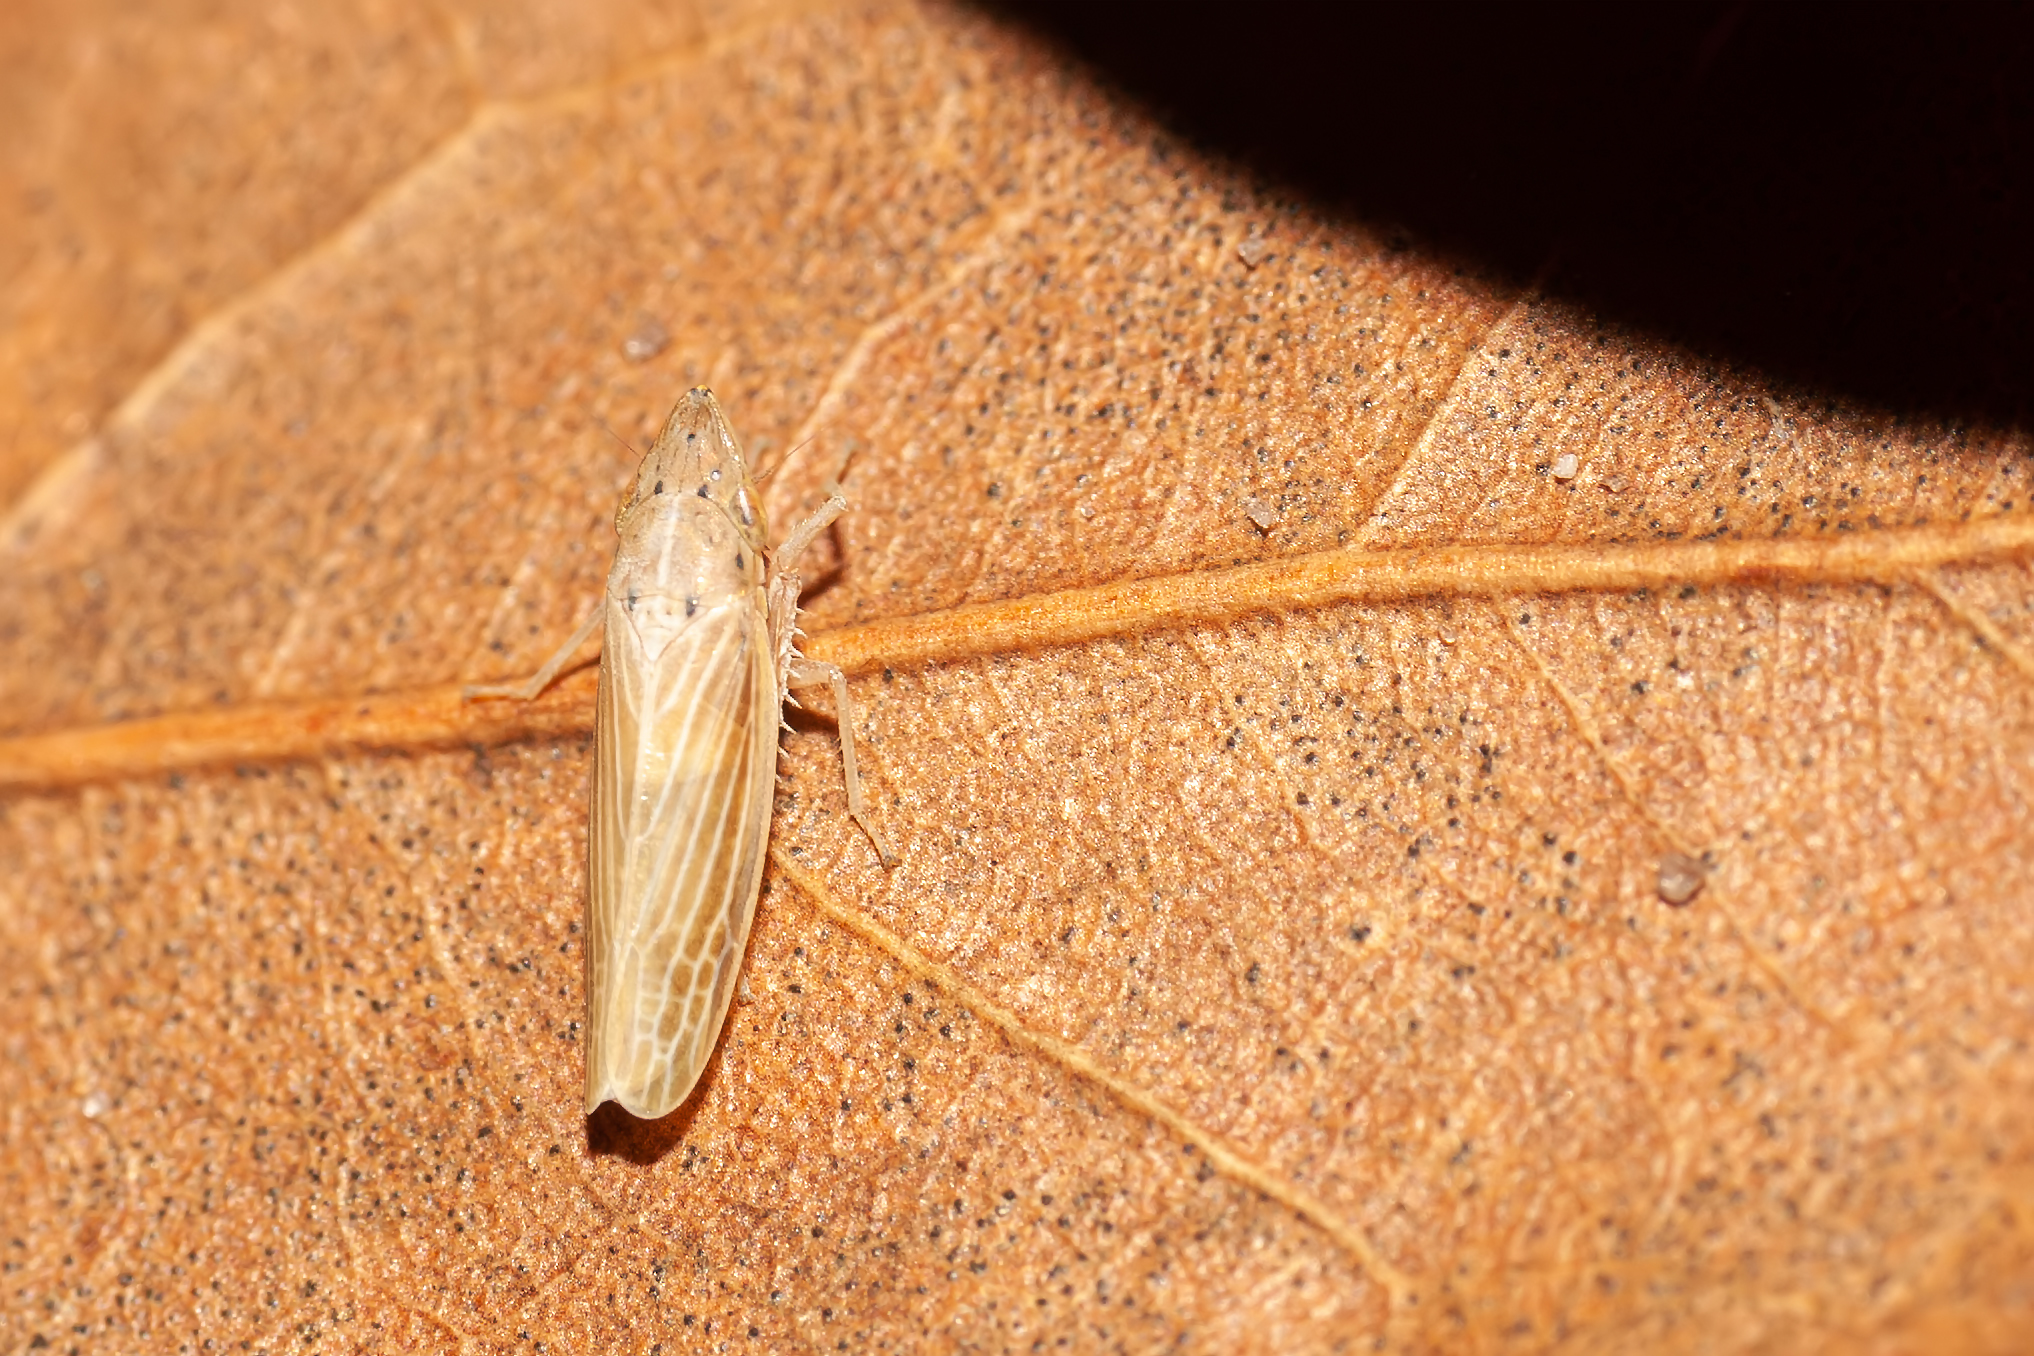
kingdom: Animalia
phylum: Arthropoda
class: Insecta
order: Hemiptera
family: Cicadellidae
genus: Draeculacephala
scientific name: Draeculacephala septemguttata
